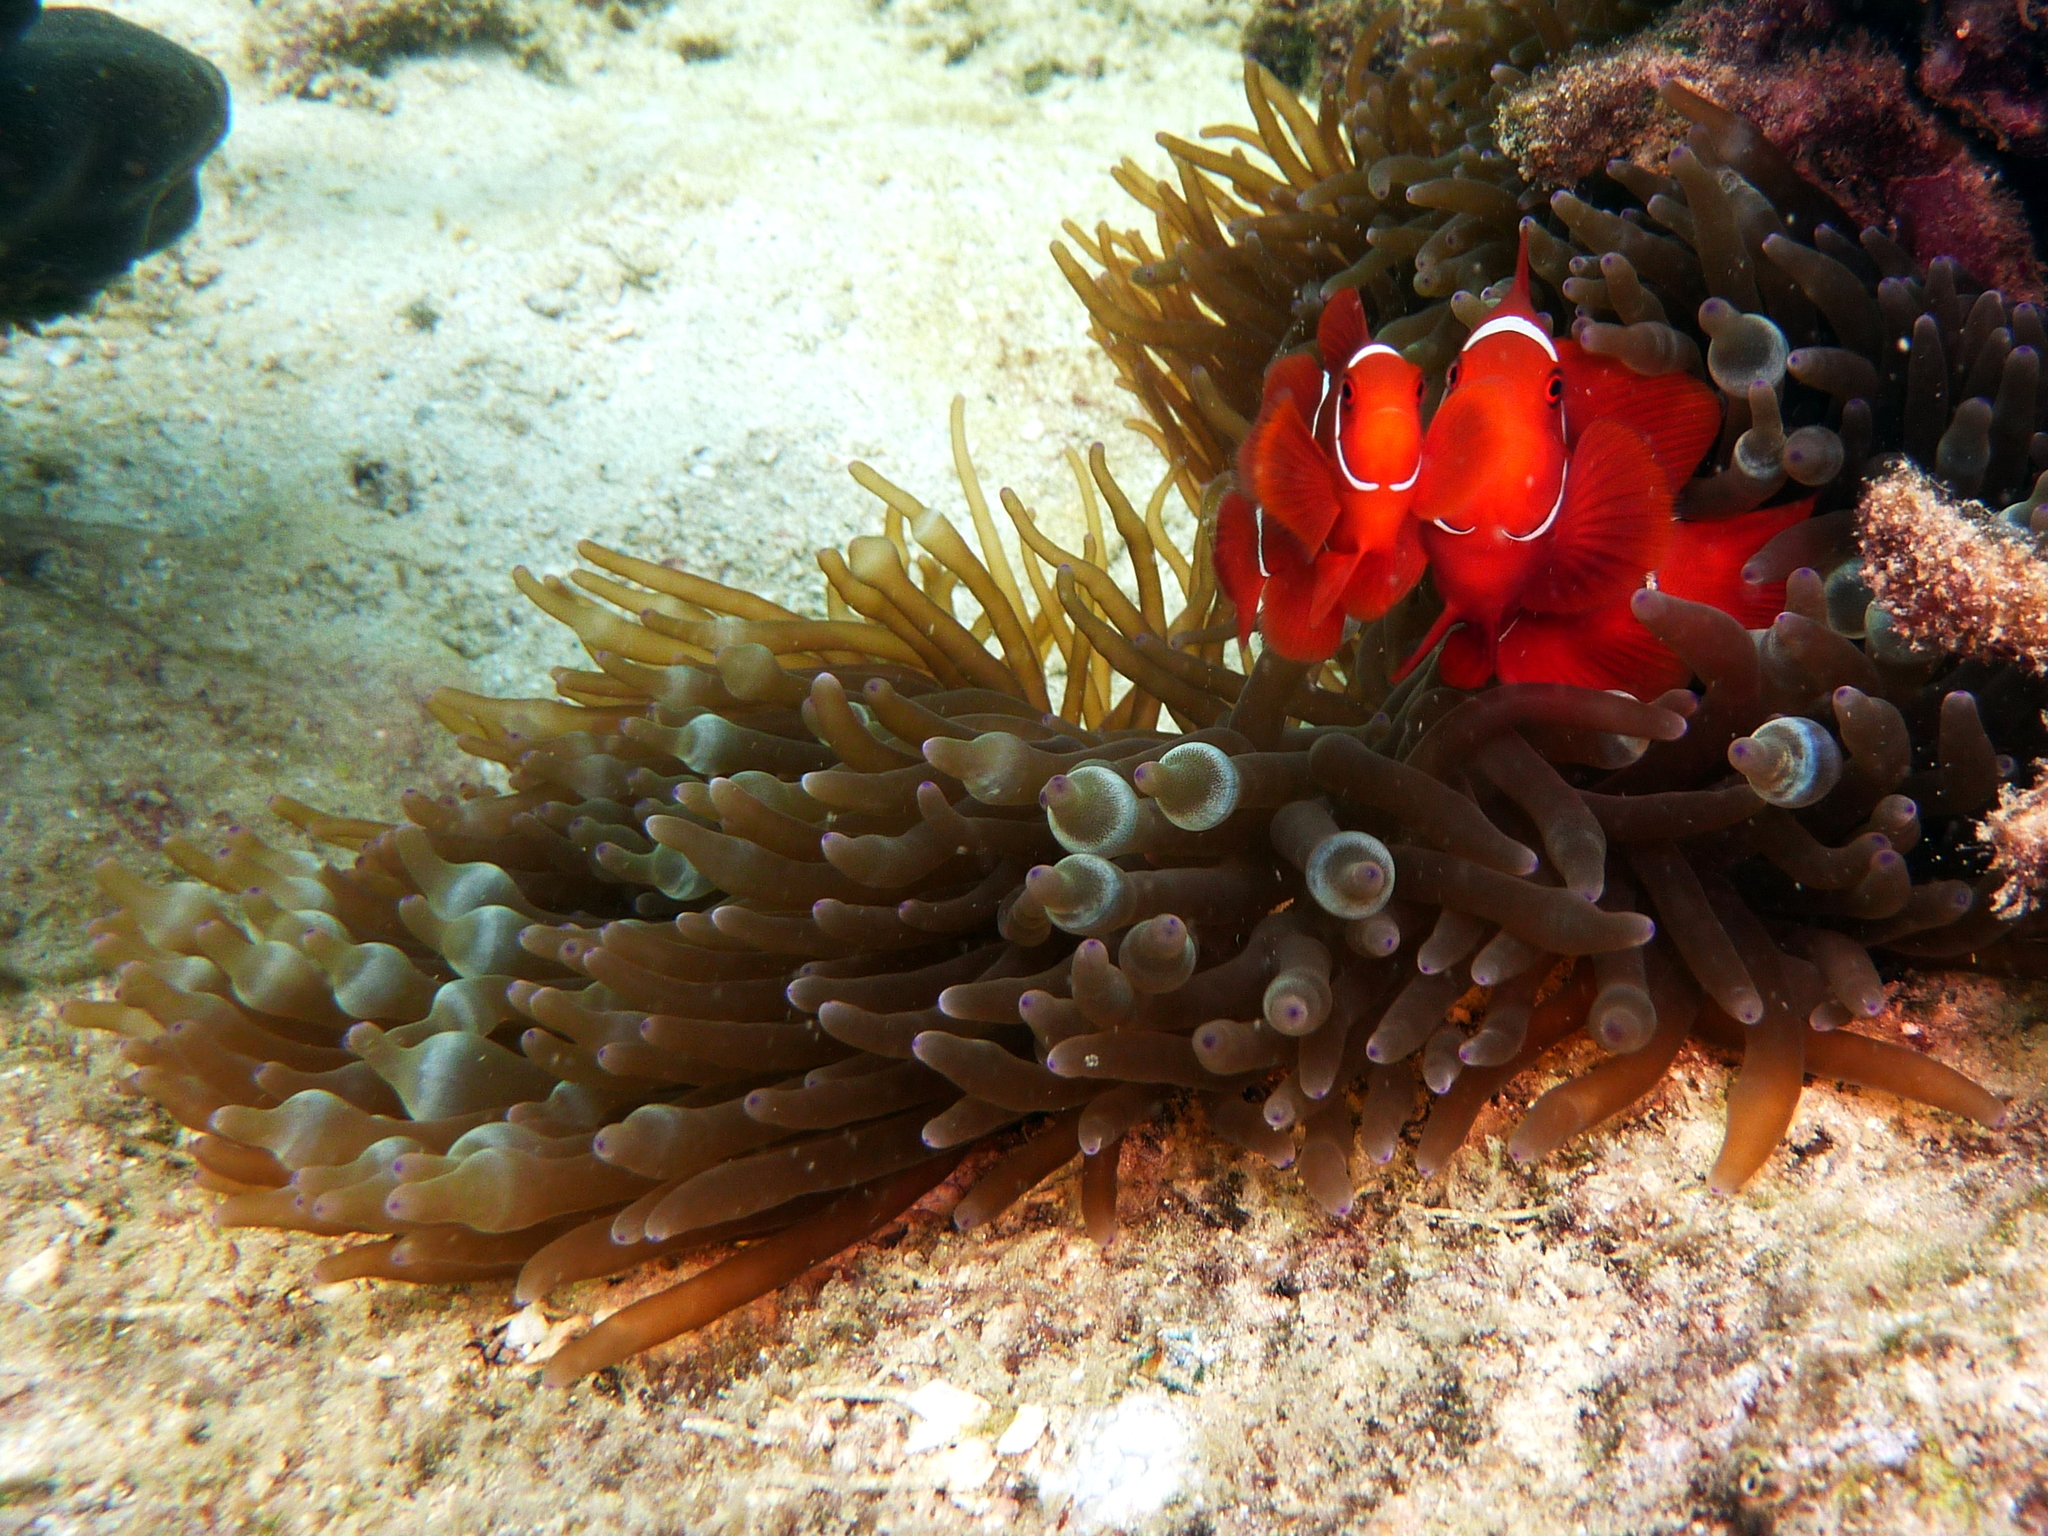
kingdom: Animalia
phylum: Chordata
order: Perciformes
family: Pomacentridae
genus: Premnas
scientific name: Premnas biaculeatus
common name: Spinecheek anemonefish
